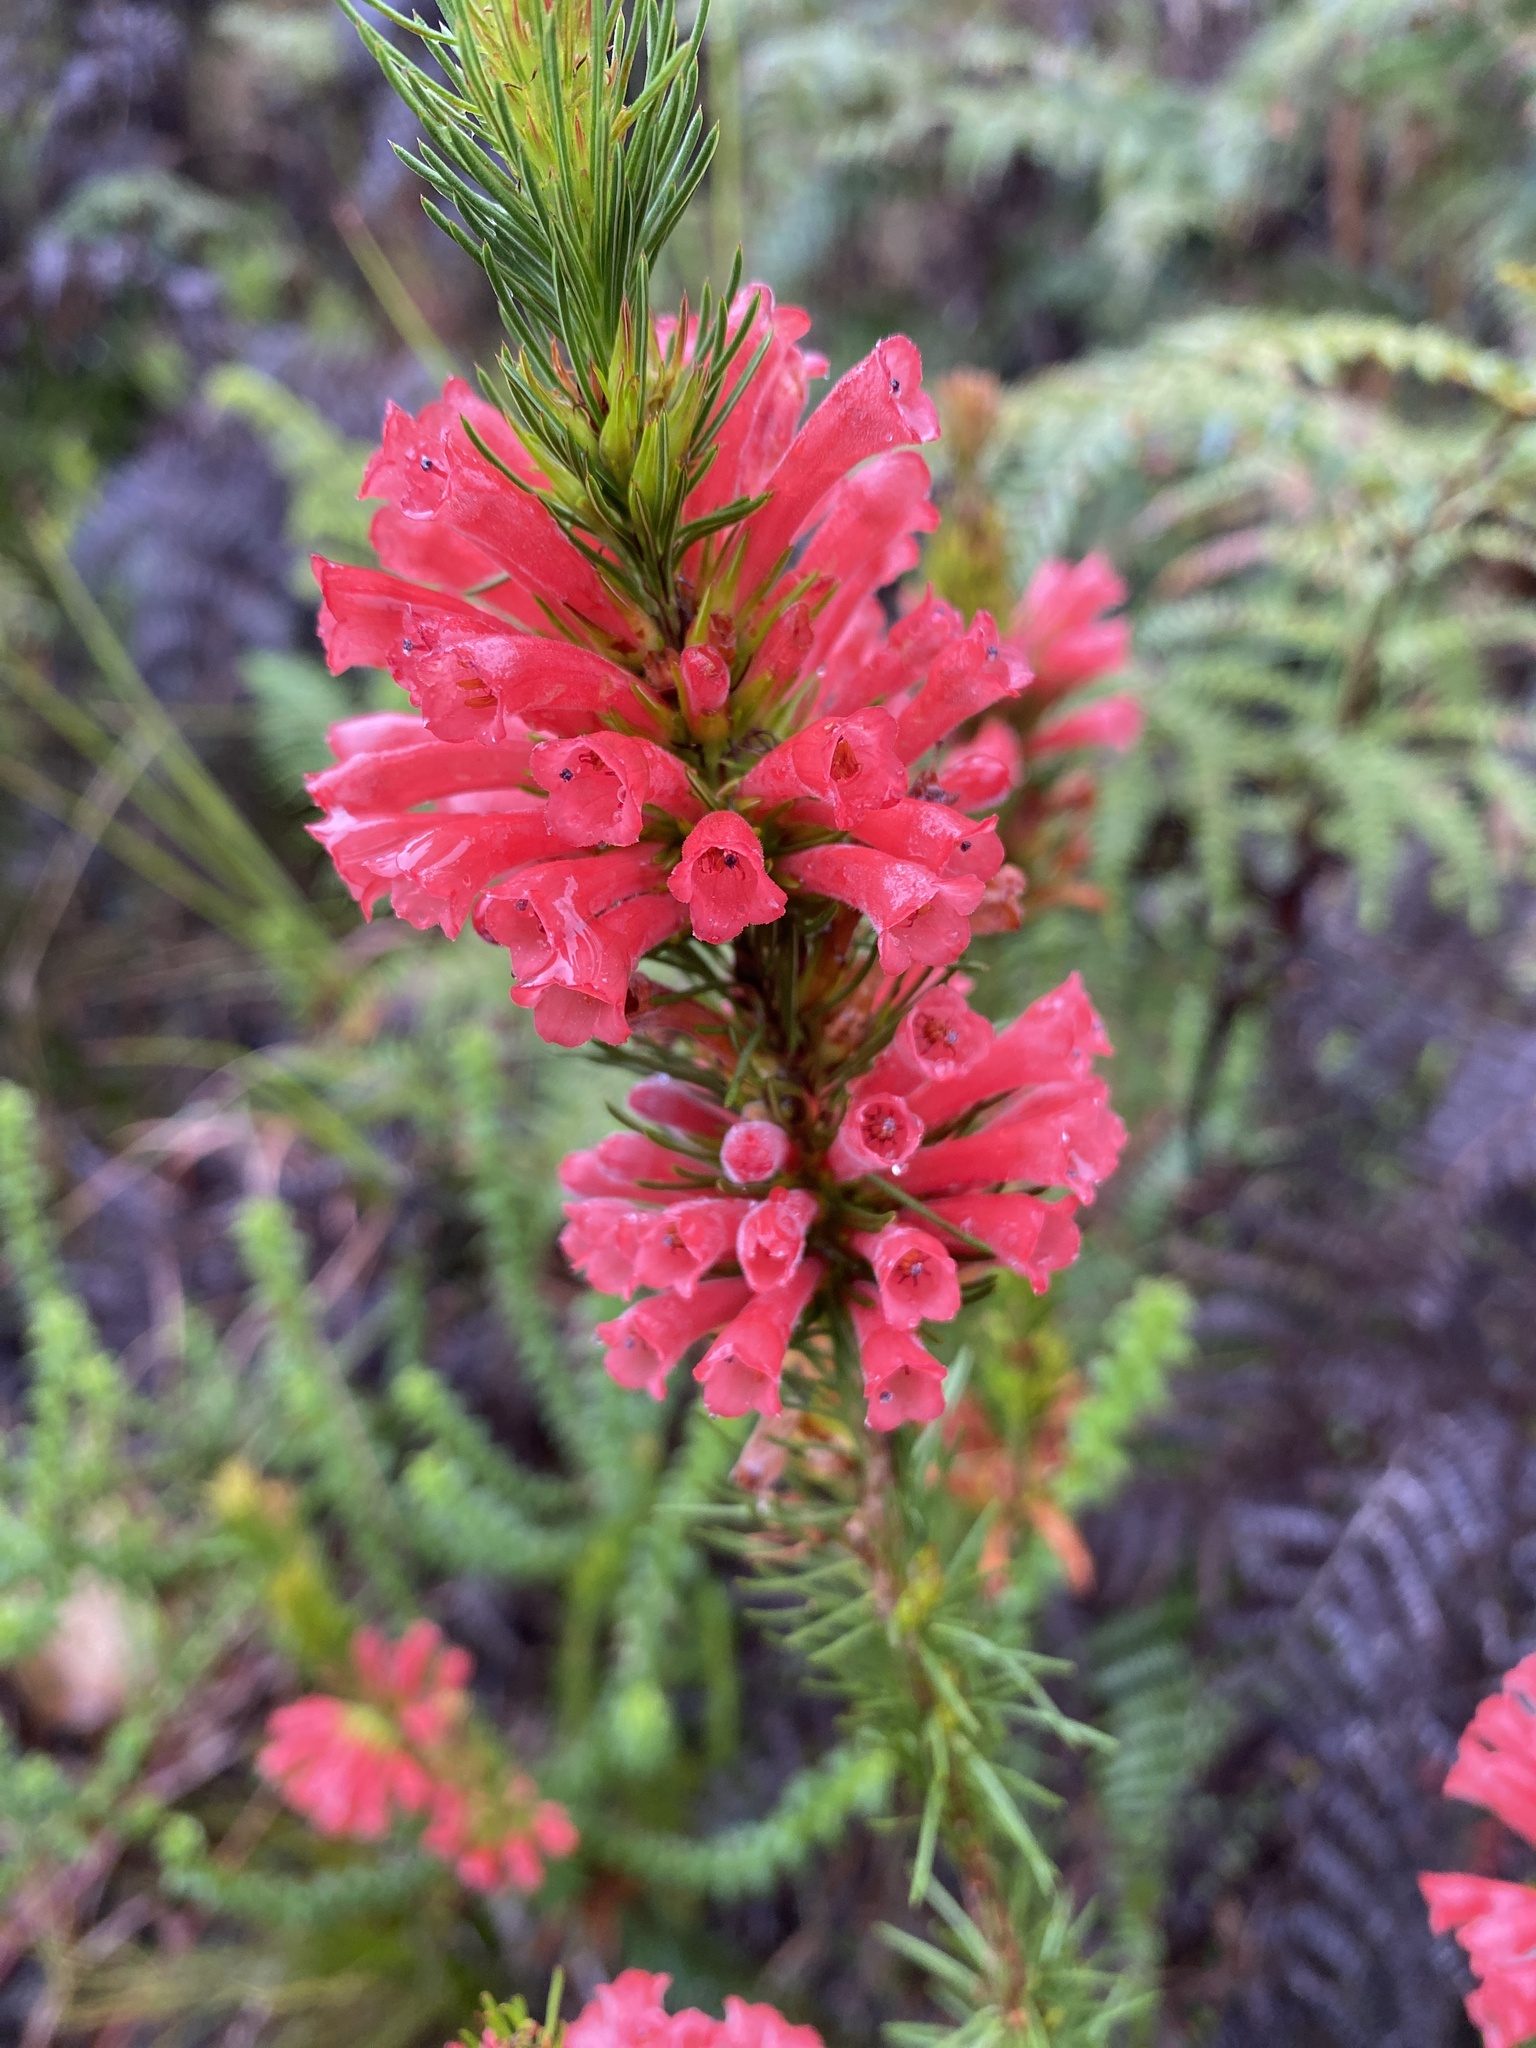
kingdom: Plantae
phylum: Tracheophyta
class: Magnoliopsida
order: Ericales
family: Ericaceae
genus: Erica
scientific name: Erica vestita
